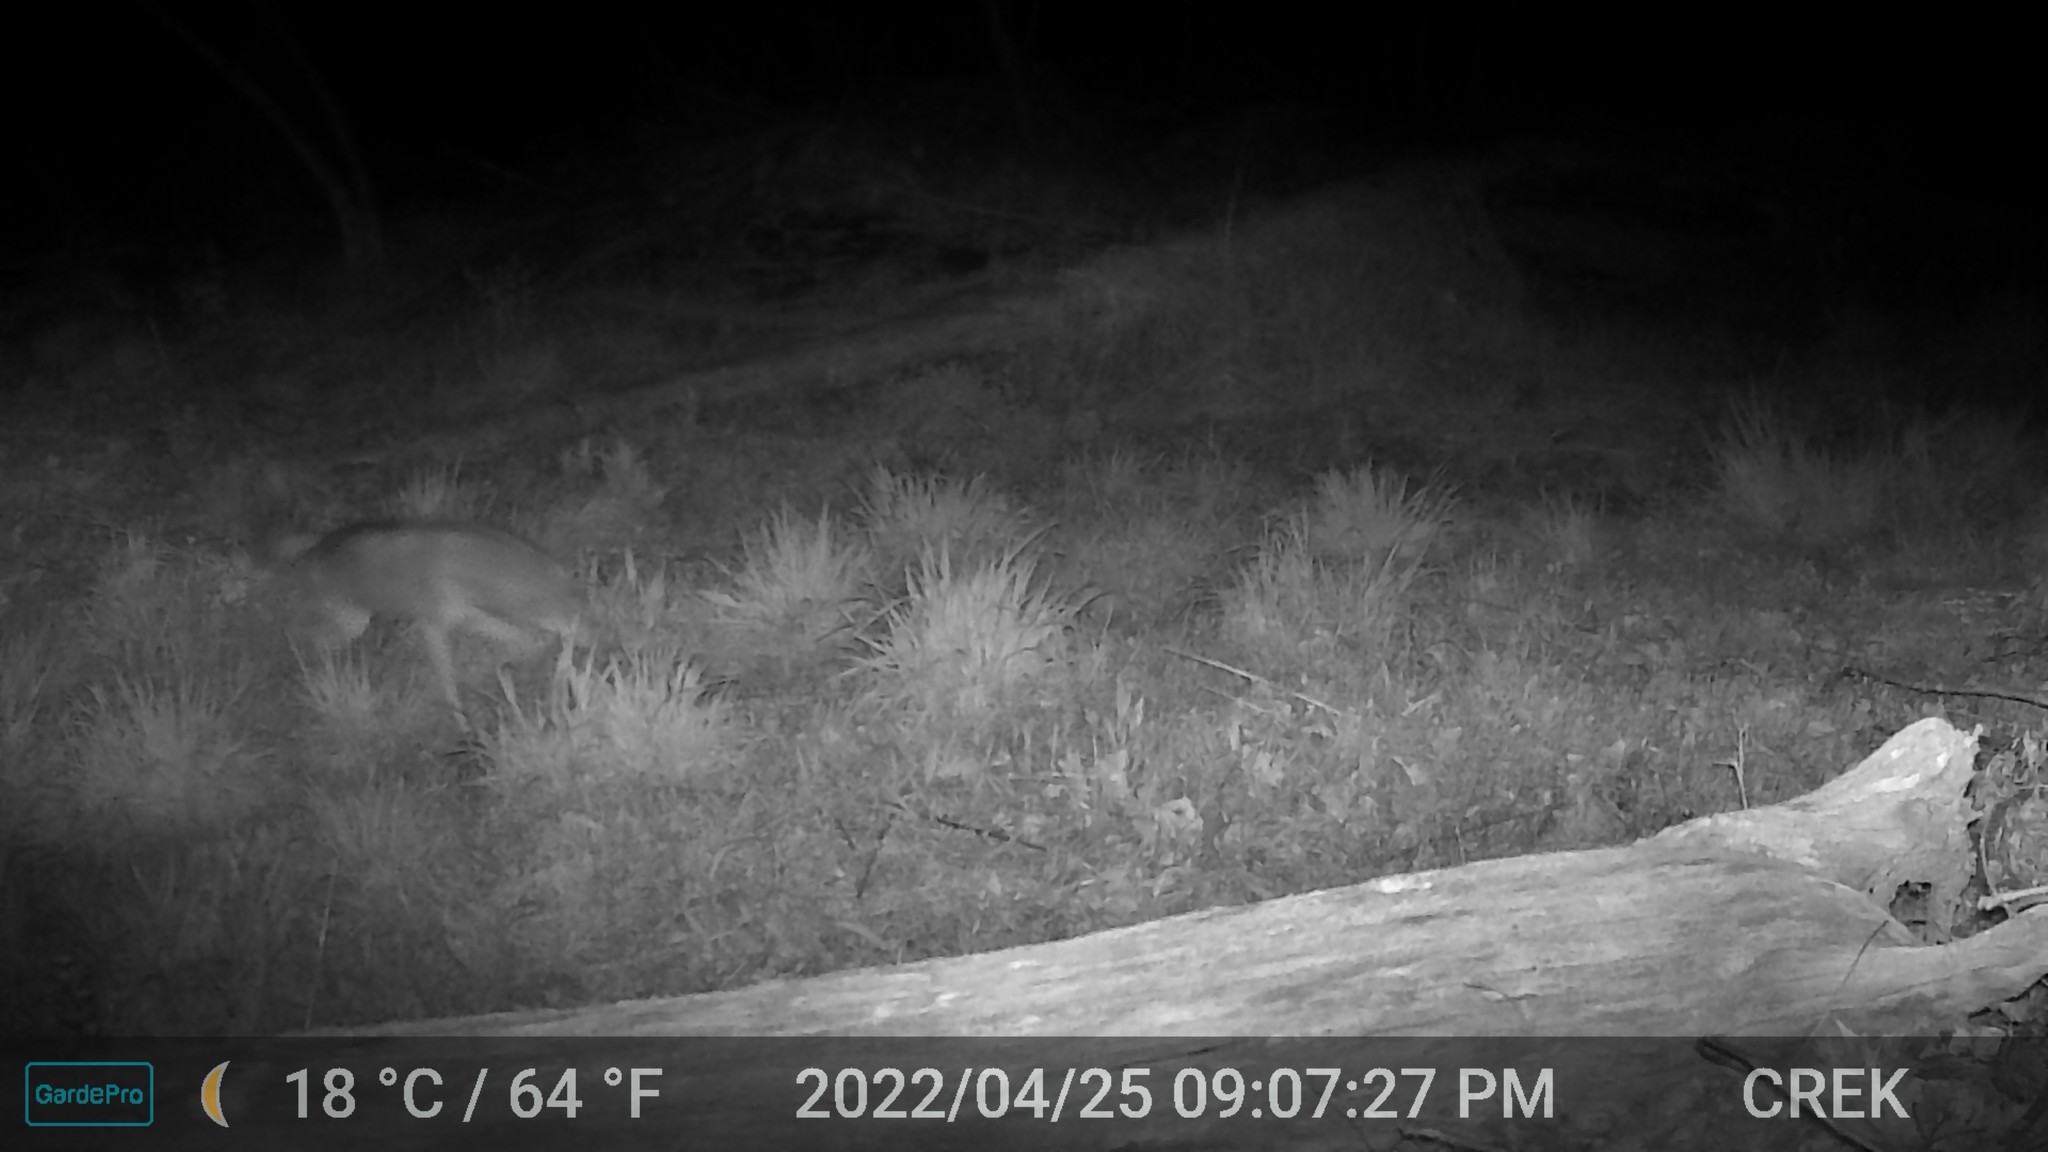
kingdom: Animalia
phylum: Chordata
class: Mammalia
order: Carnivora
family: Canidae
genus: Canis
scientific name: Canis latrans
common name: Coyote
